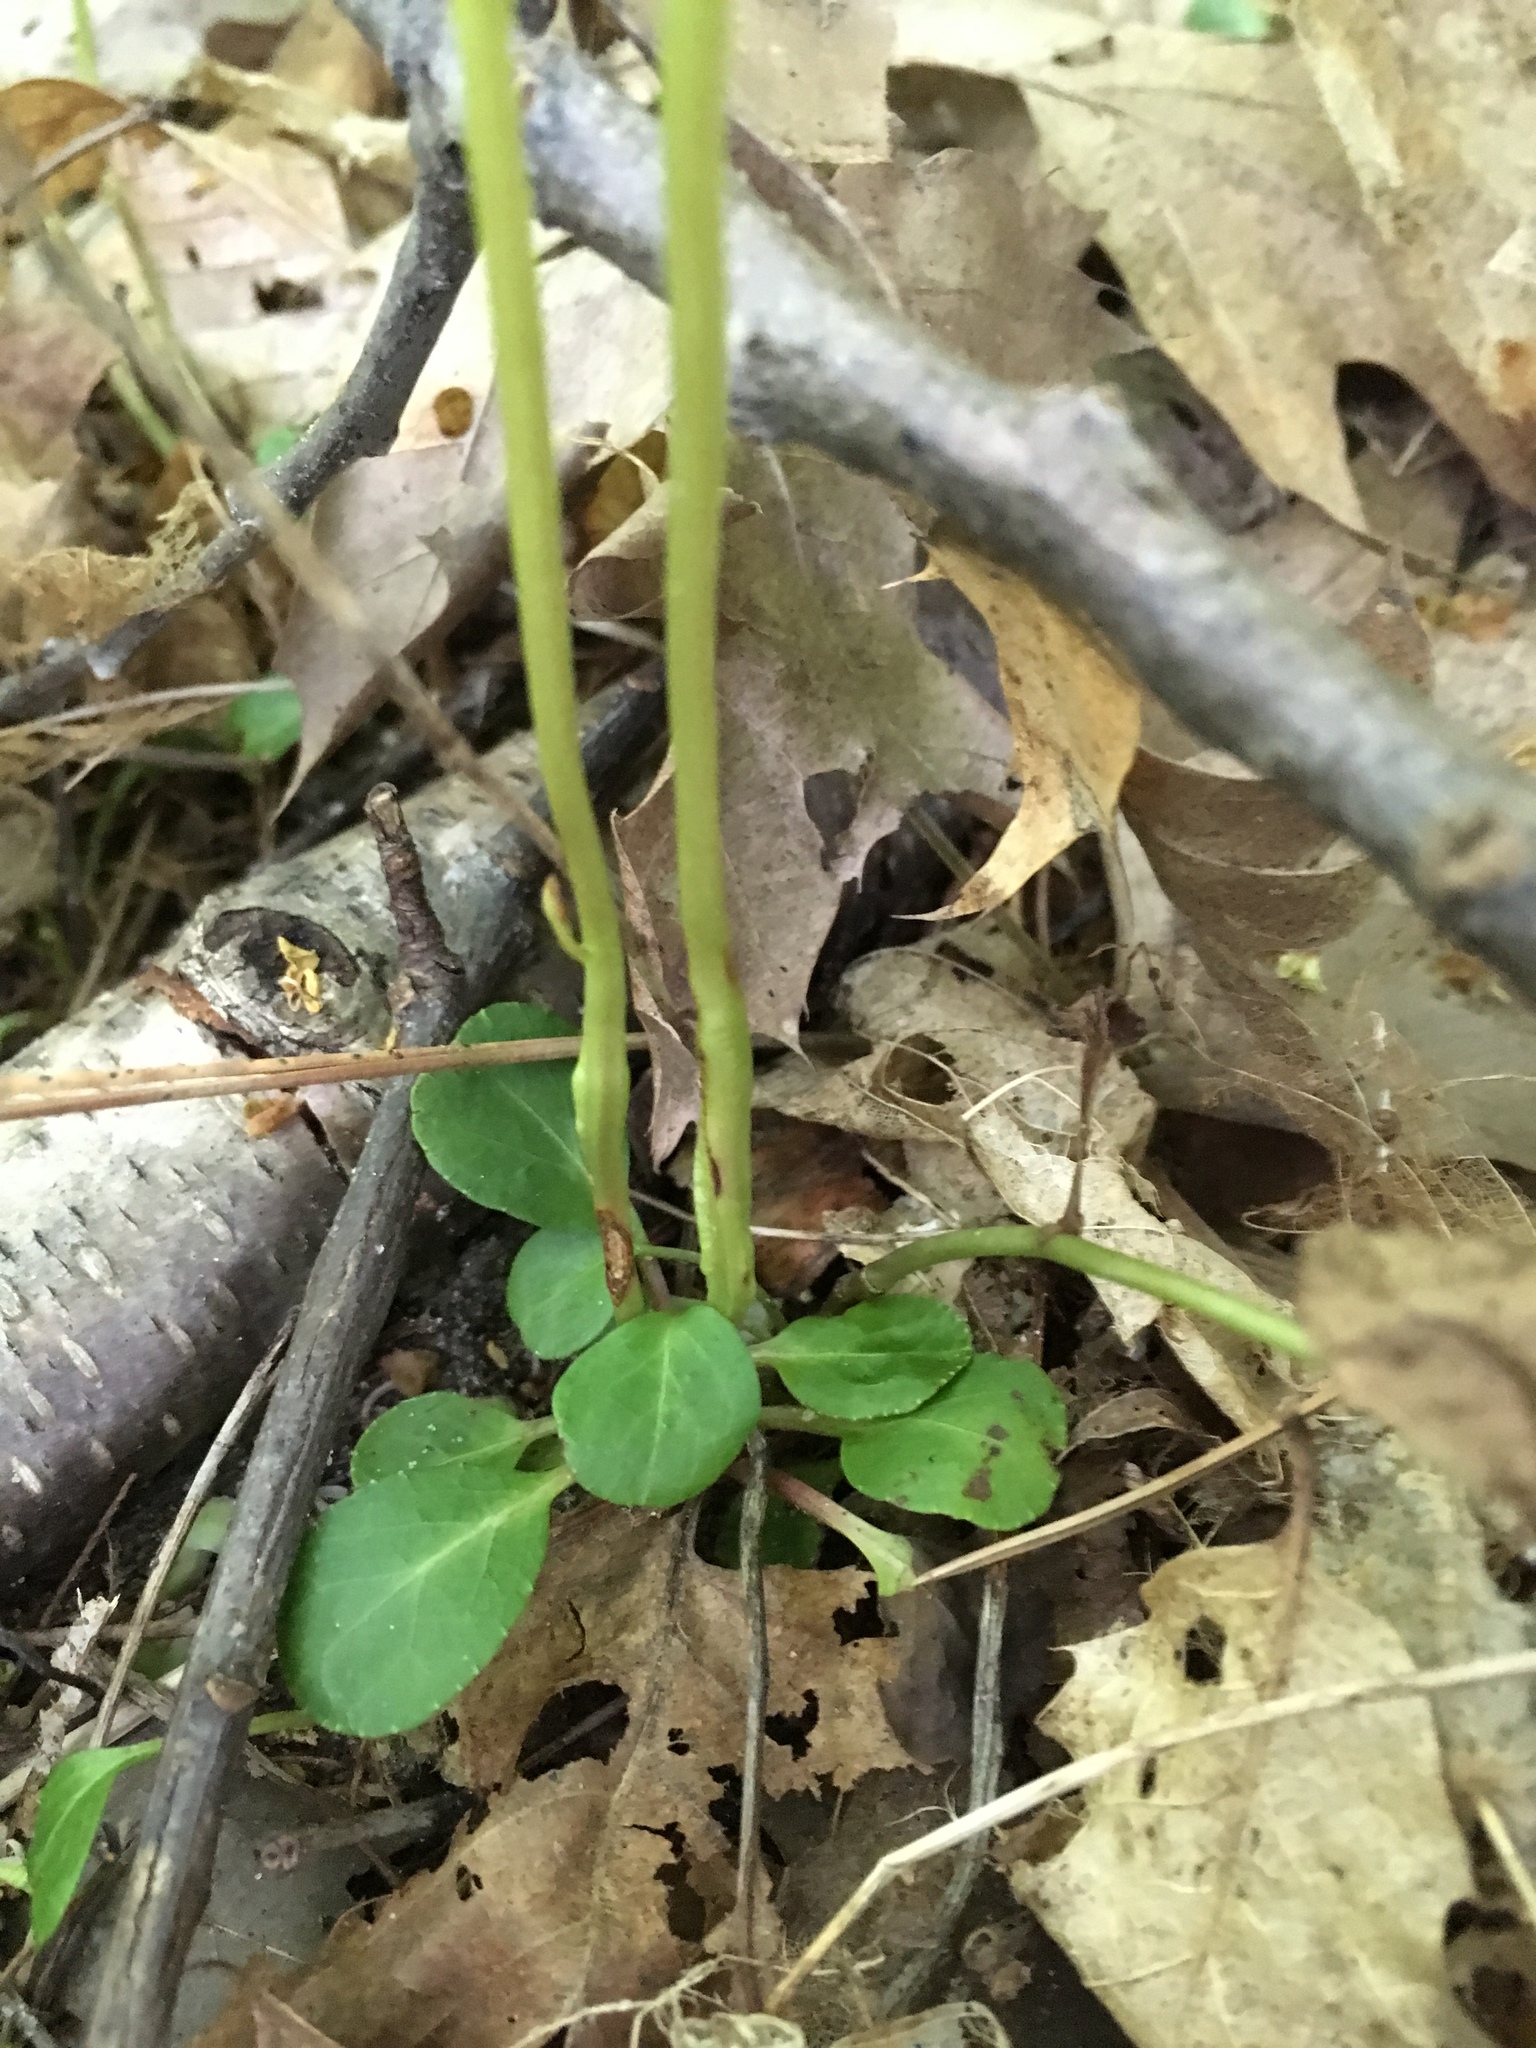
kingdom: Plantae
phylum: Tracheophyta
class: Magnoliopsida
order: Ericales
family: Ericaceae
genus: Pyrola
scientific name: Pyrola chlorantha
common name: Green wintergreen
